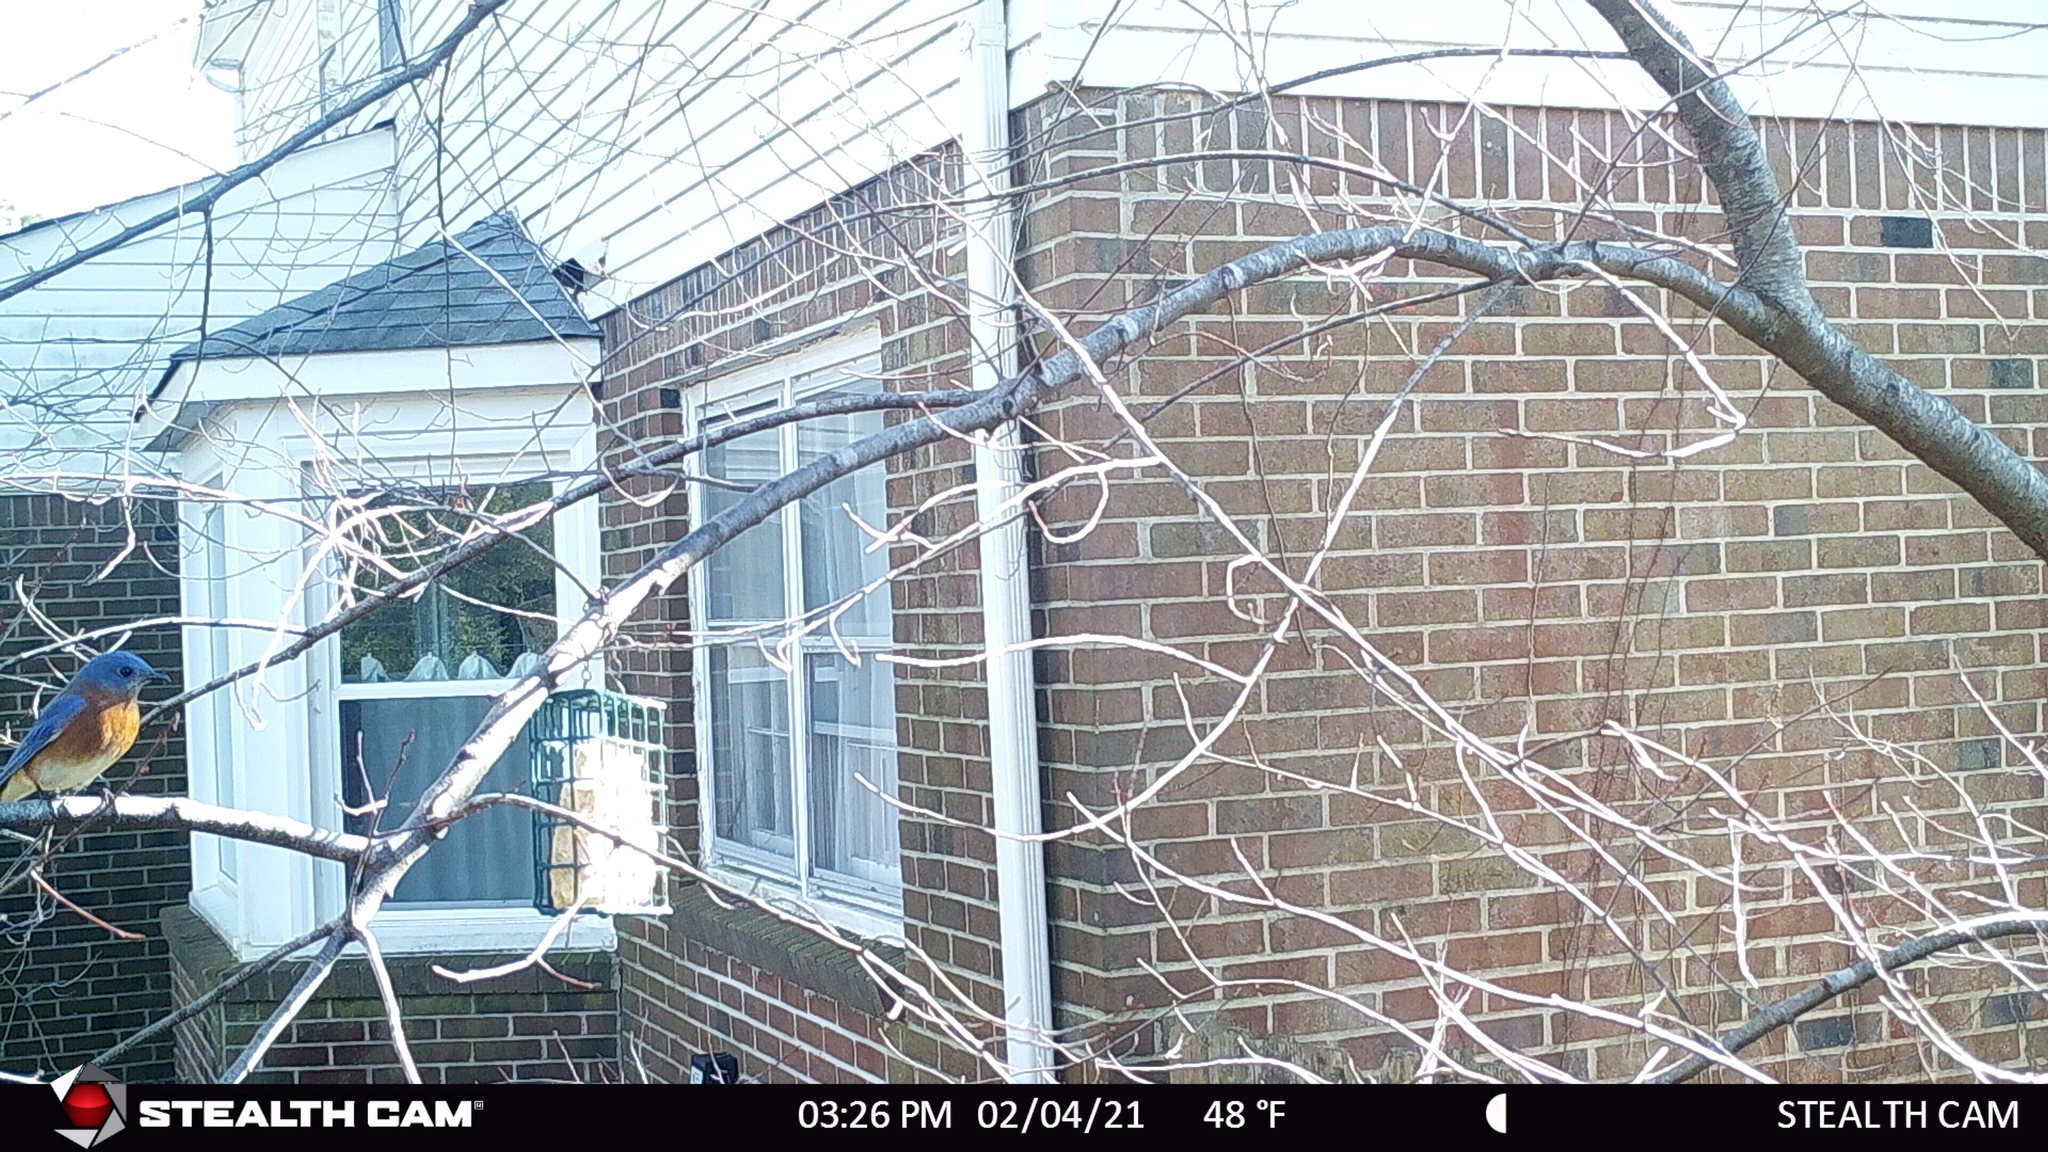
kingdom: Animalia
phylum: Chordata
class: Aves
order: Passeriformes
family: Turdidae
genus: Sialia
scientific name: Sialia sialis
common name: Eastern bluebird
